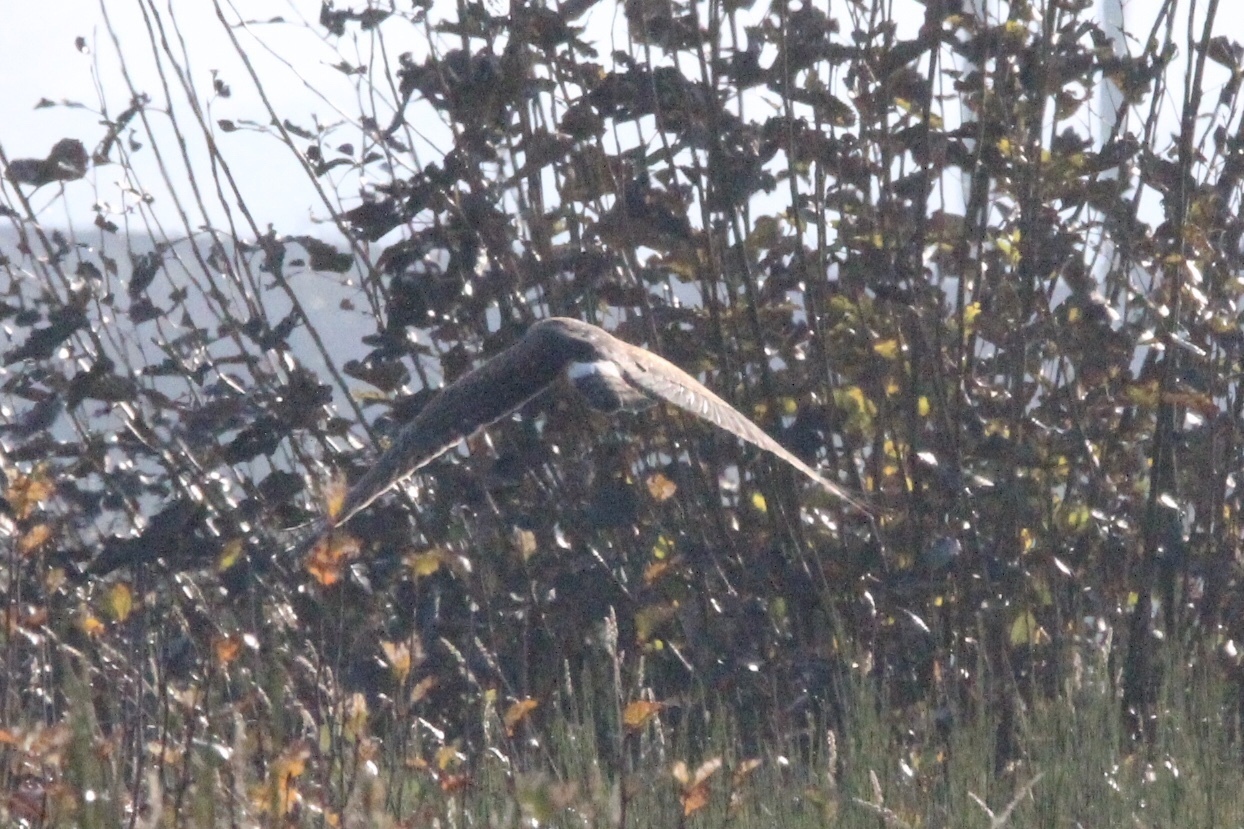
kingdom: Animalia
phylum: Chordata
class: Aves
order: Accipitriformes
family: Accipitridae
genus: Circus
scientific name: Circus cyaneus
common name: Hen harrier
